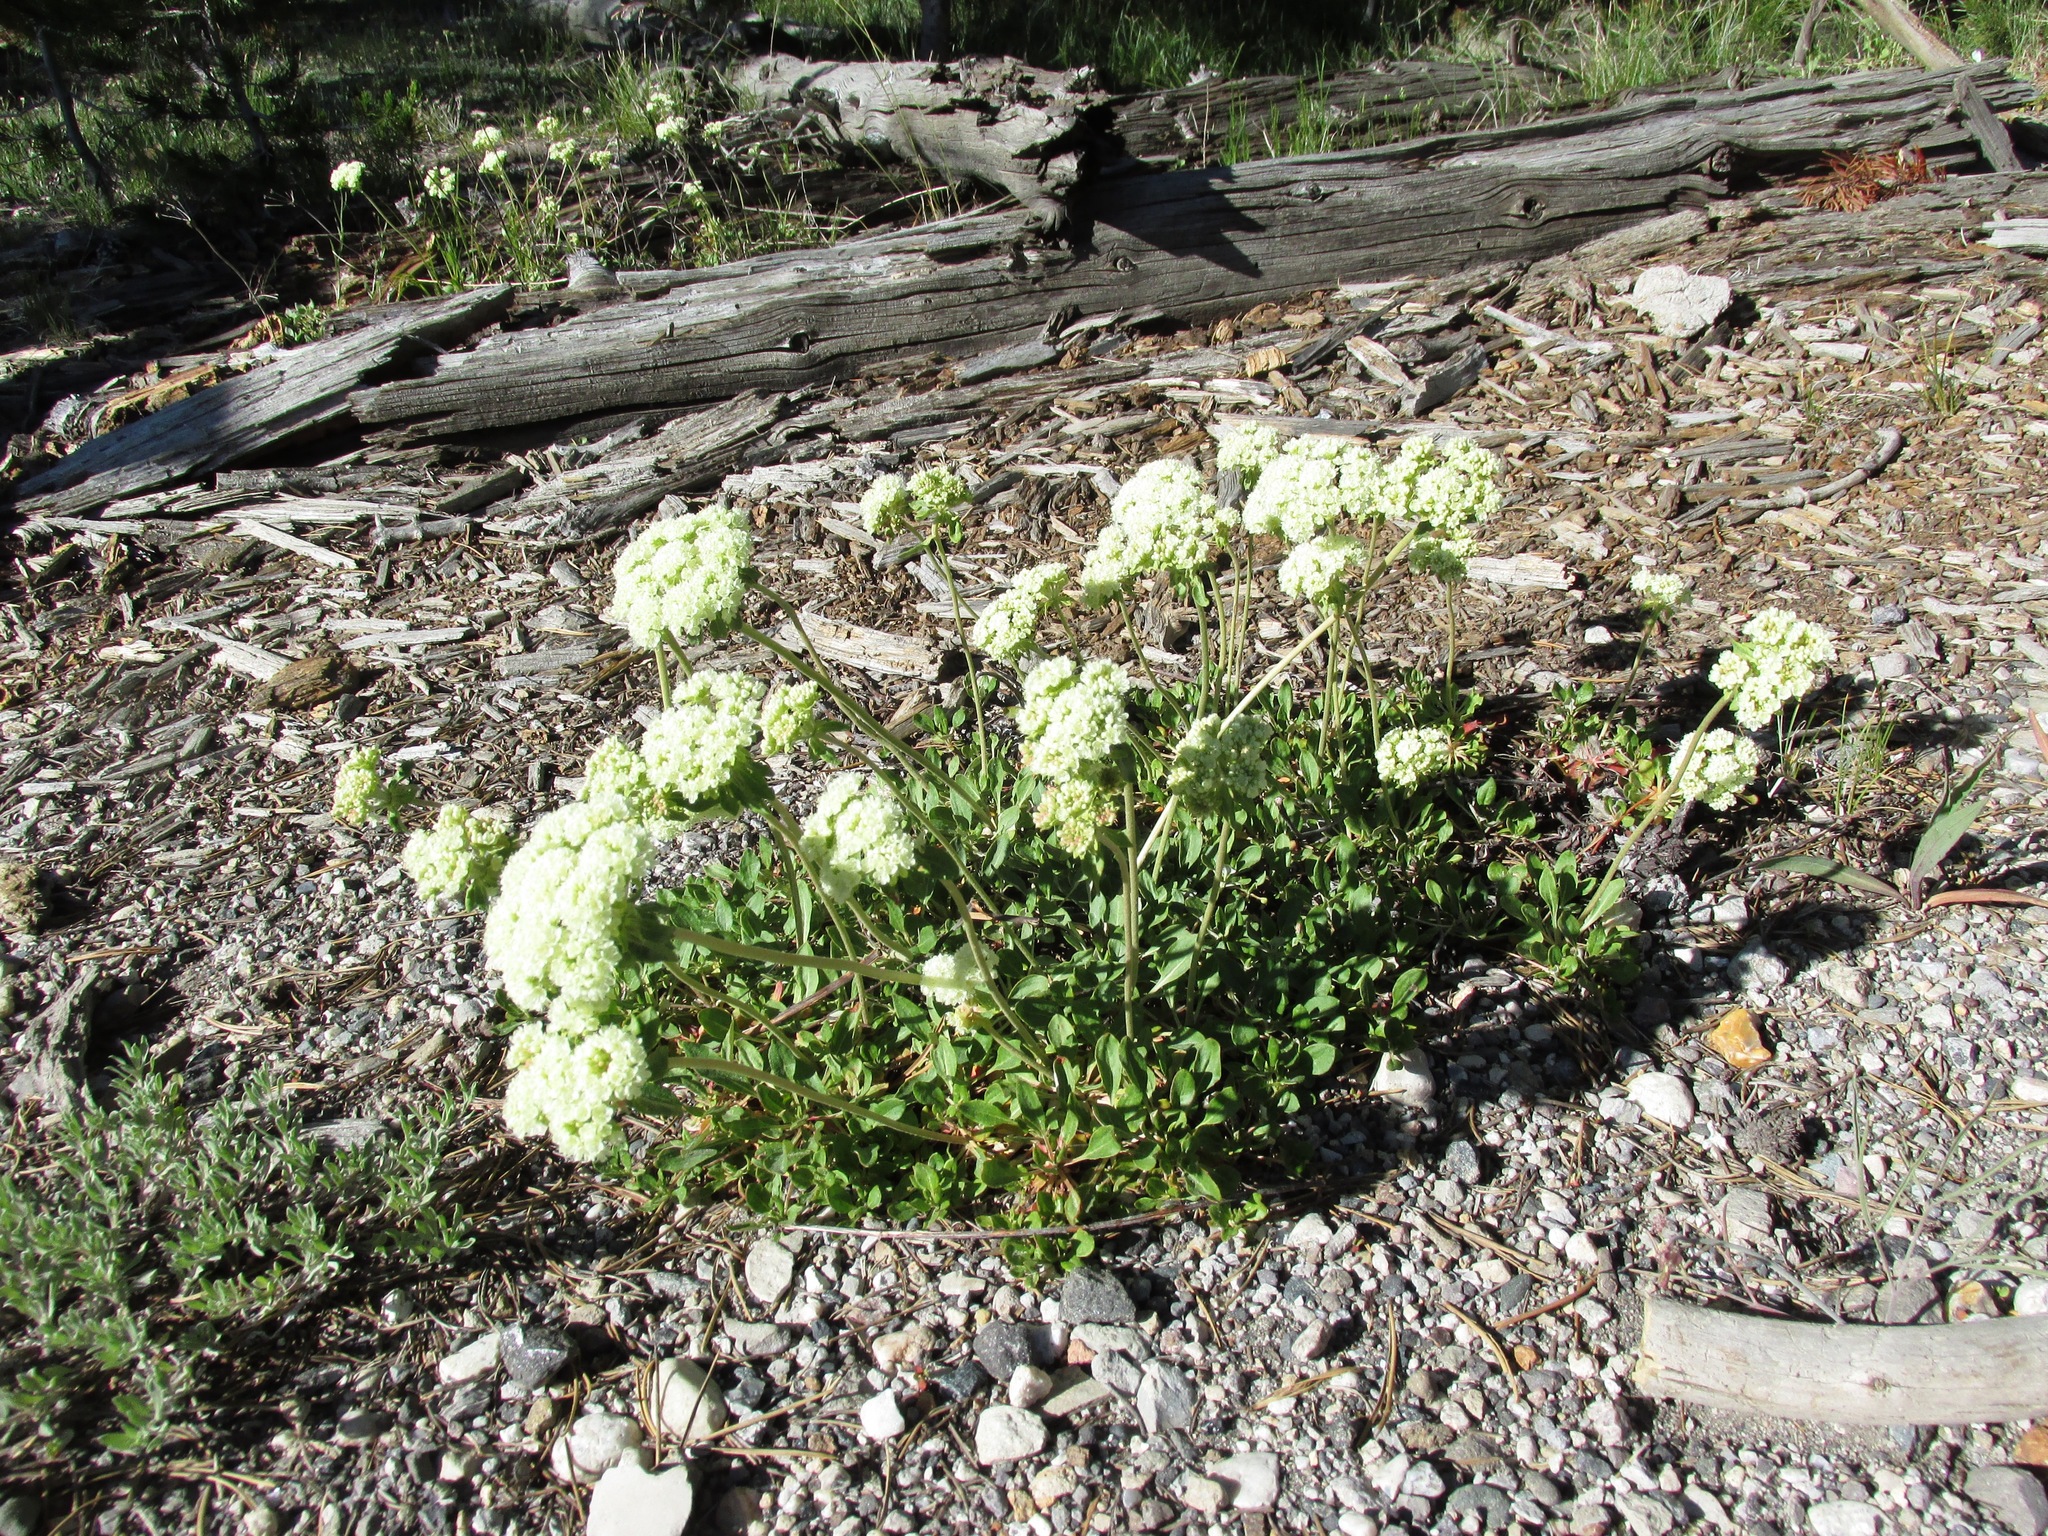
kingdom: Plantae
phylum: Tracheophyta
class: Magnoliopsida
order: Caryophyllales
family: Polygonaceae
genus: Eriogonum
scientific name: Eriogonum umbellatum
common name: Sulfur-buckwheat
